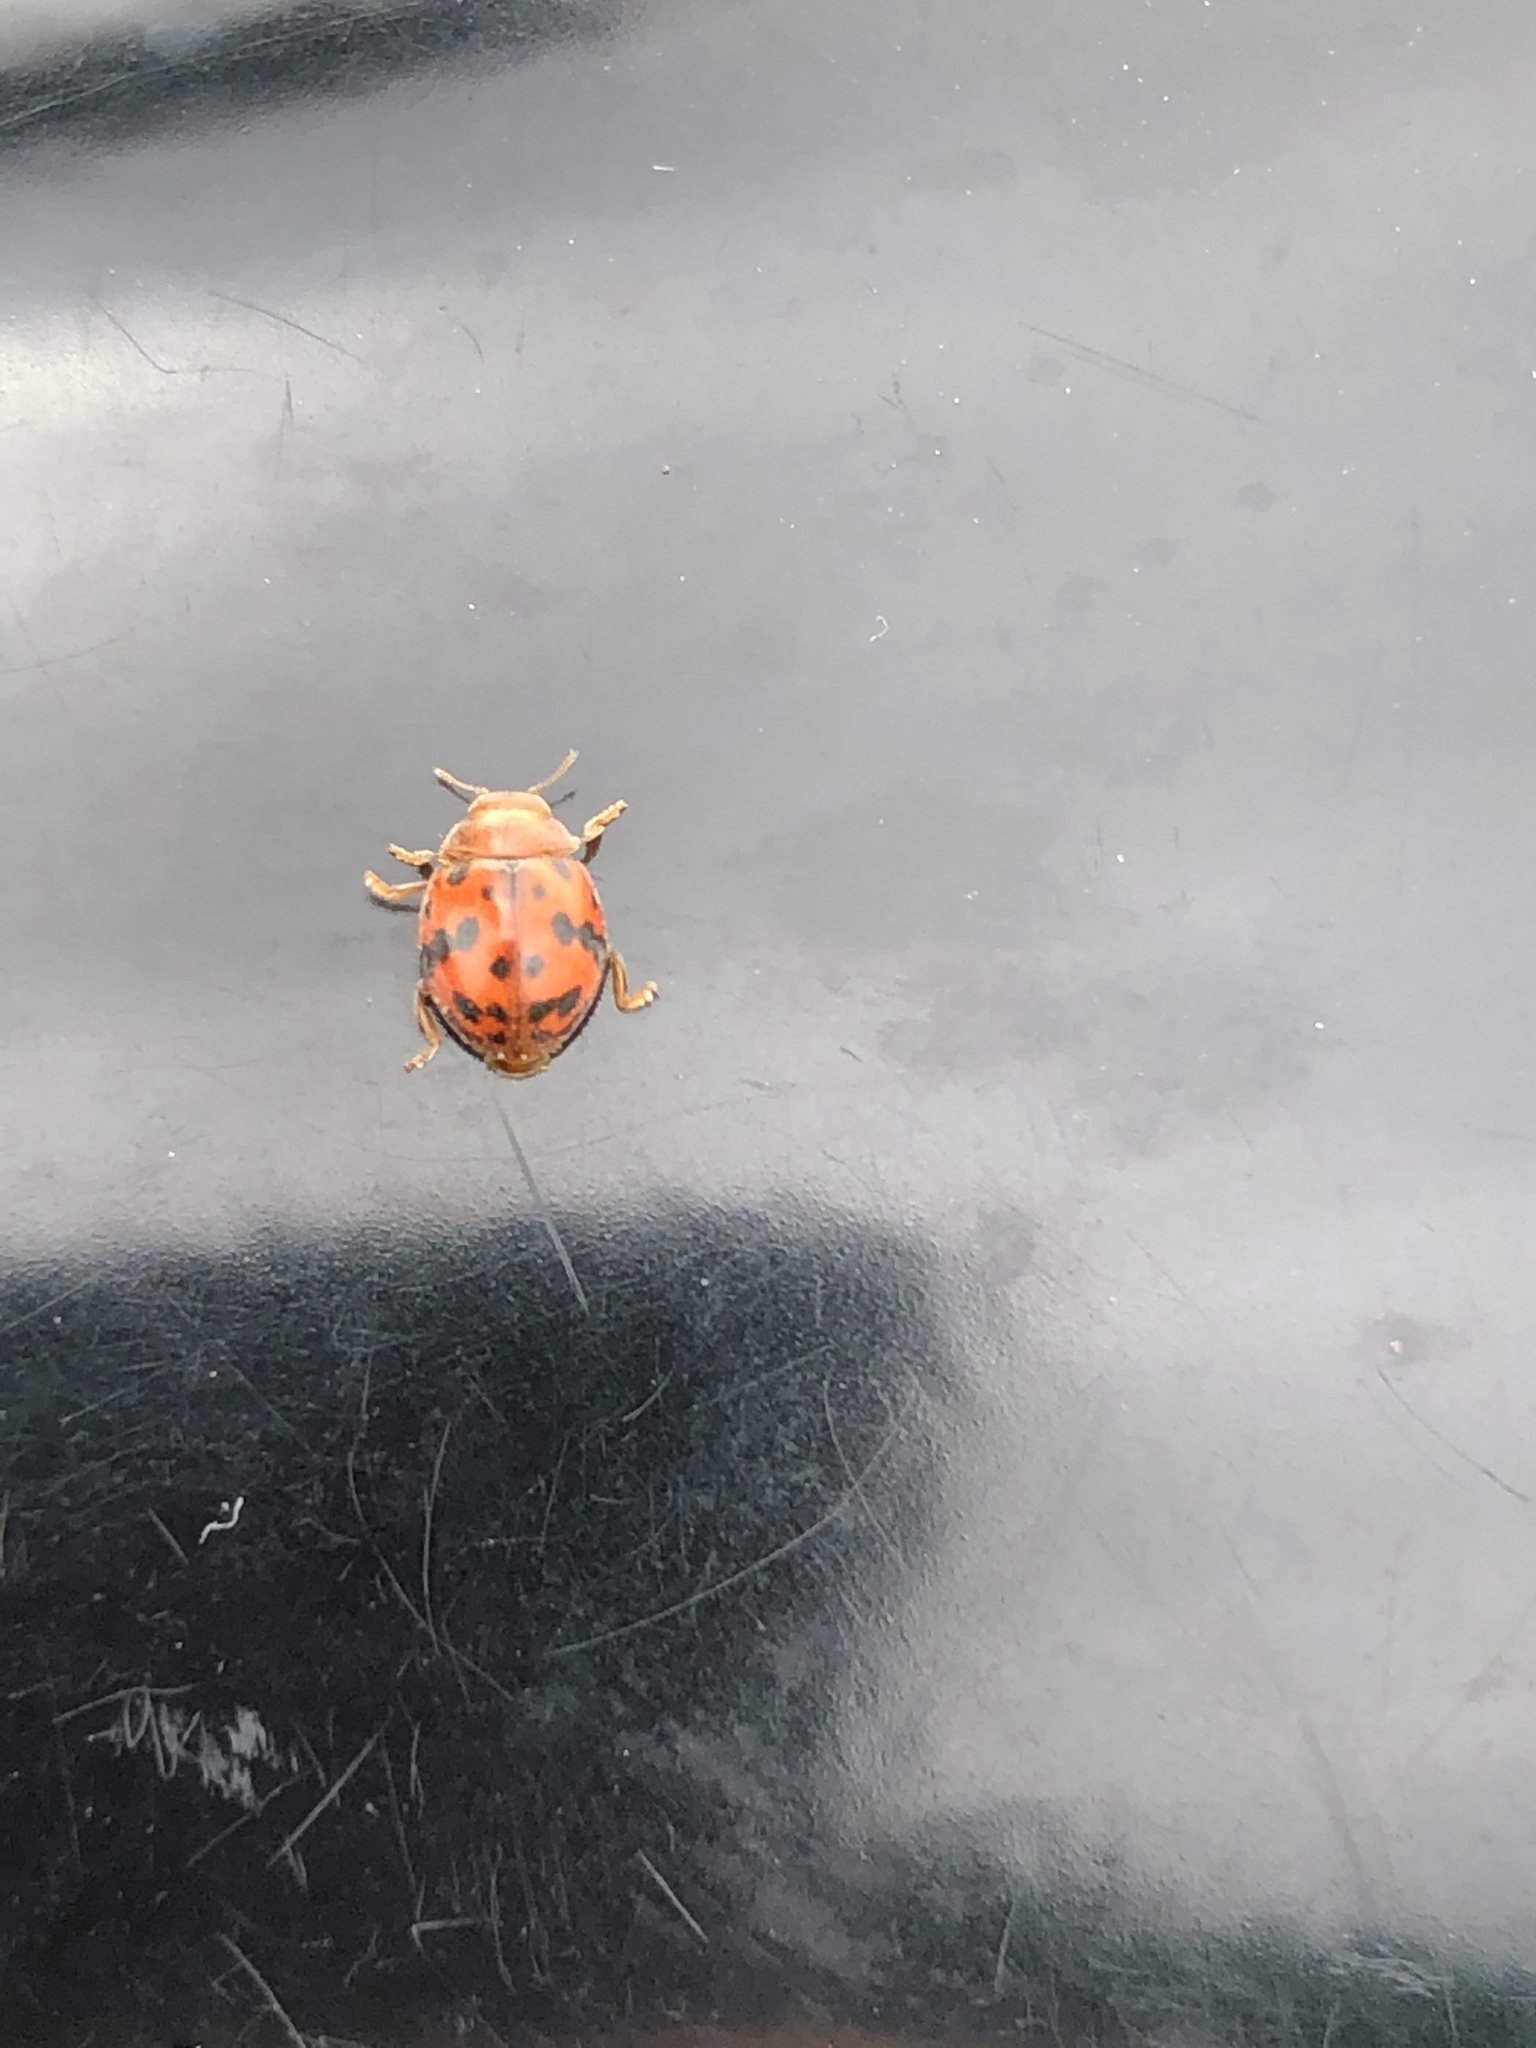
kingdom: Animalia
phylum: Arthropoda
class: Insecta
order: Coleoptera
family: Coccinellidae
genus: Subcoccinella
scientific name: Subcoccinella vigintiquatuorpunctata
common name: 24-spot ladybird
